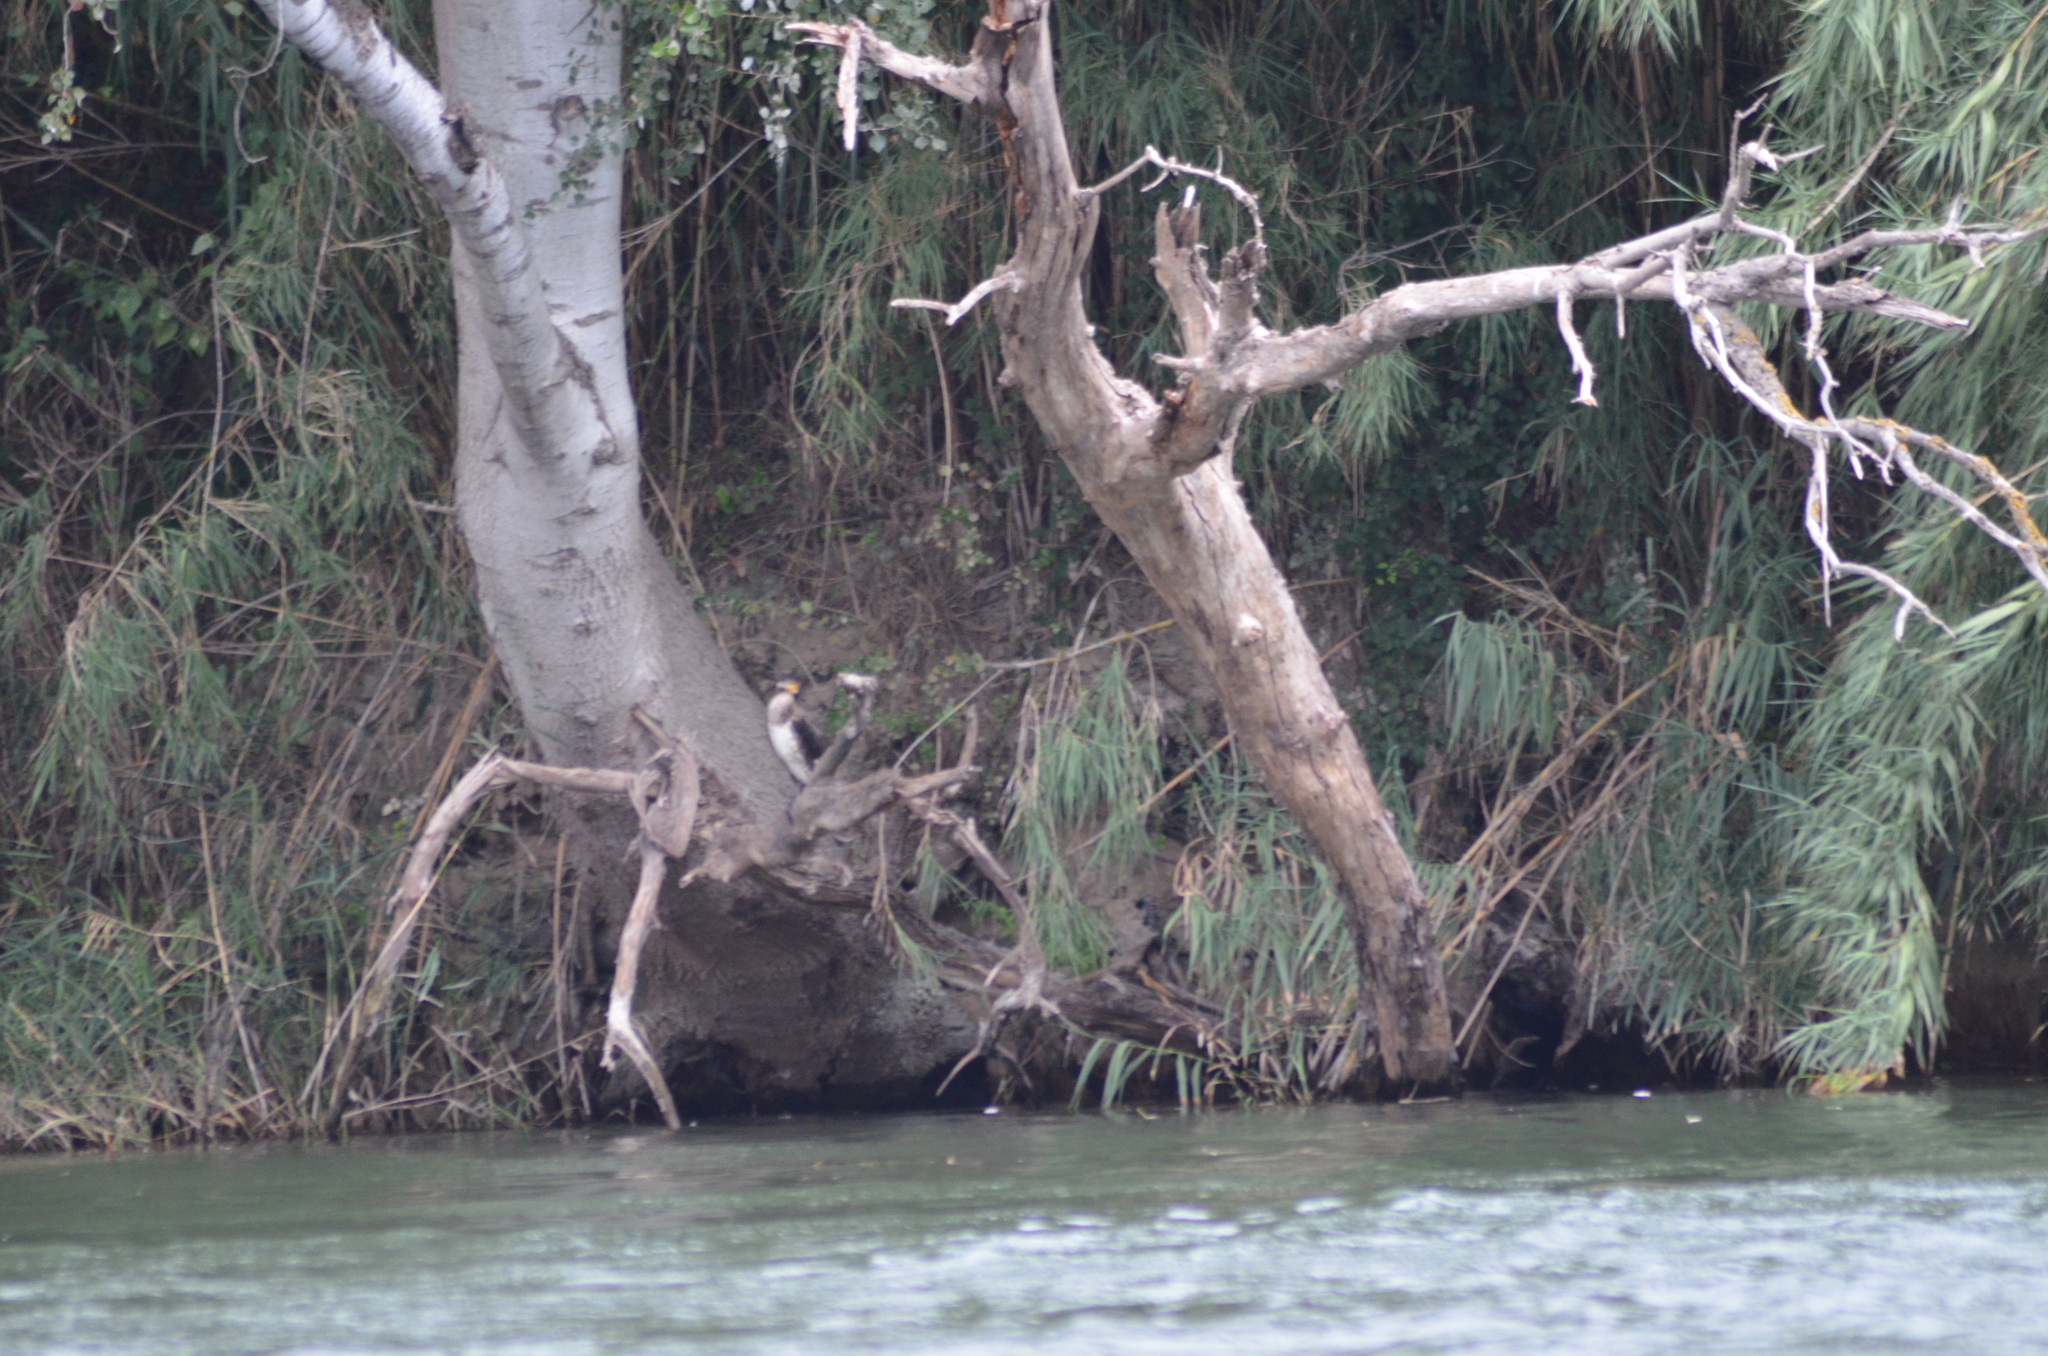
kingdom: Animalia
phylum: Chordata
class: Aves
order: Suliformes
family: Phalacrocoracidae
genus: Phalacrocorax
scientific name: Phalacrocorax carbo
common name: Great cormorant
